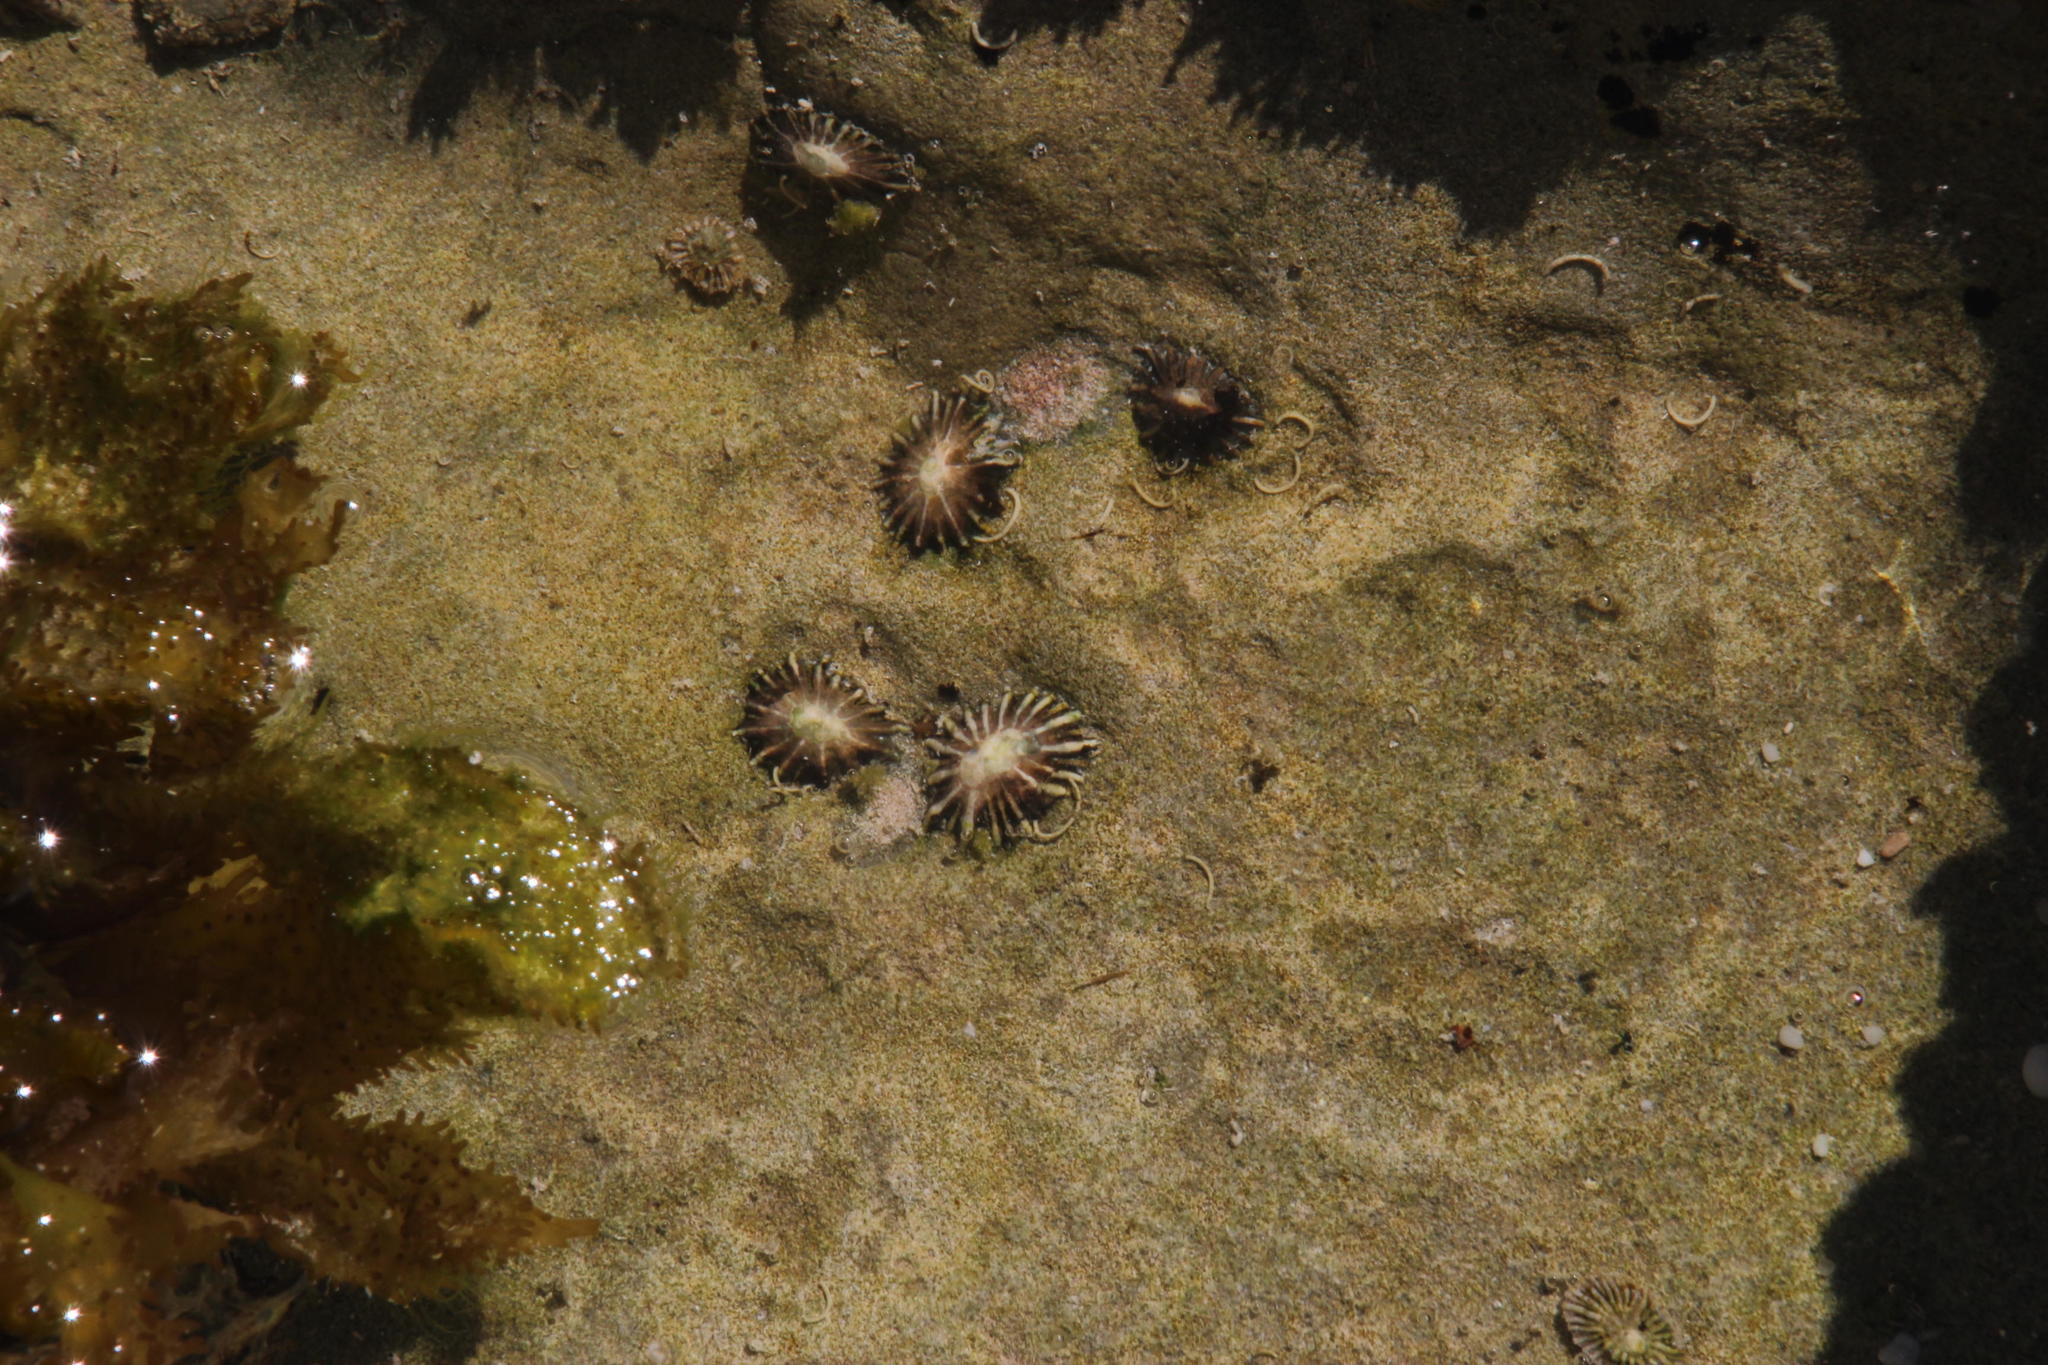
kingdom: Animalia
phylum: Mollusca
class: Gastropoda
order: Siphonariida
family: Siphonariidae
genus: Siphonaria
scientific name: Siphonaria concinna
